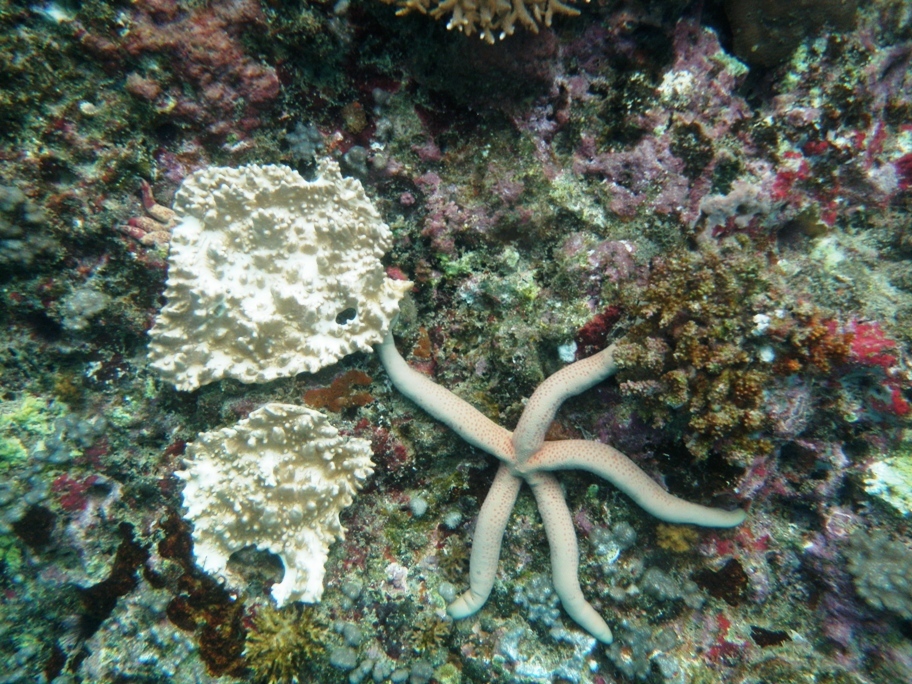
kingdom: Animalia
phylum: Echinodermata
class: Asteroidea
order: Valvatida
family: Ophidiasteridae
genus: Linckia
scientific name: Linckia laevigata
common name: Azure sea star
